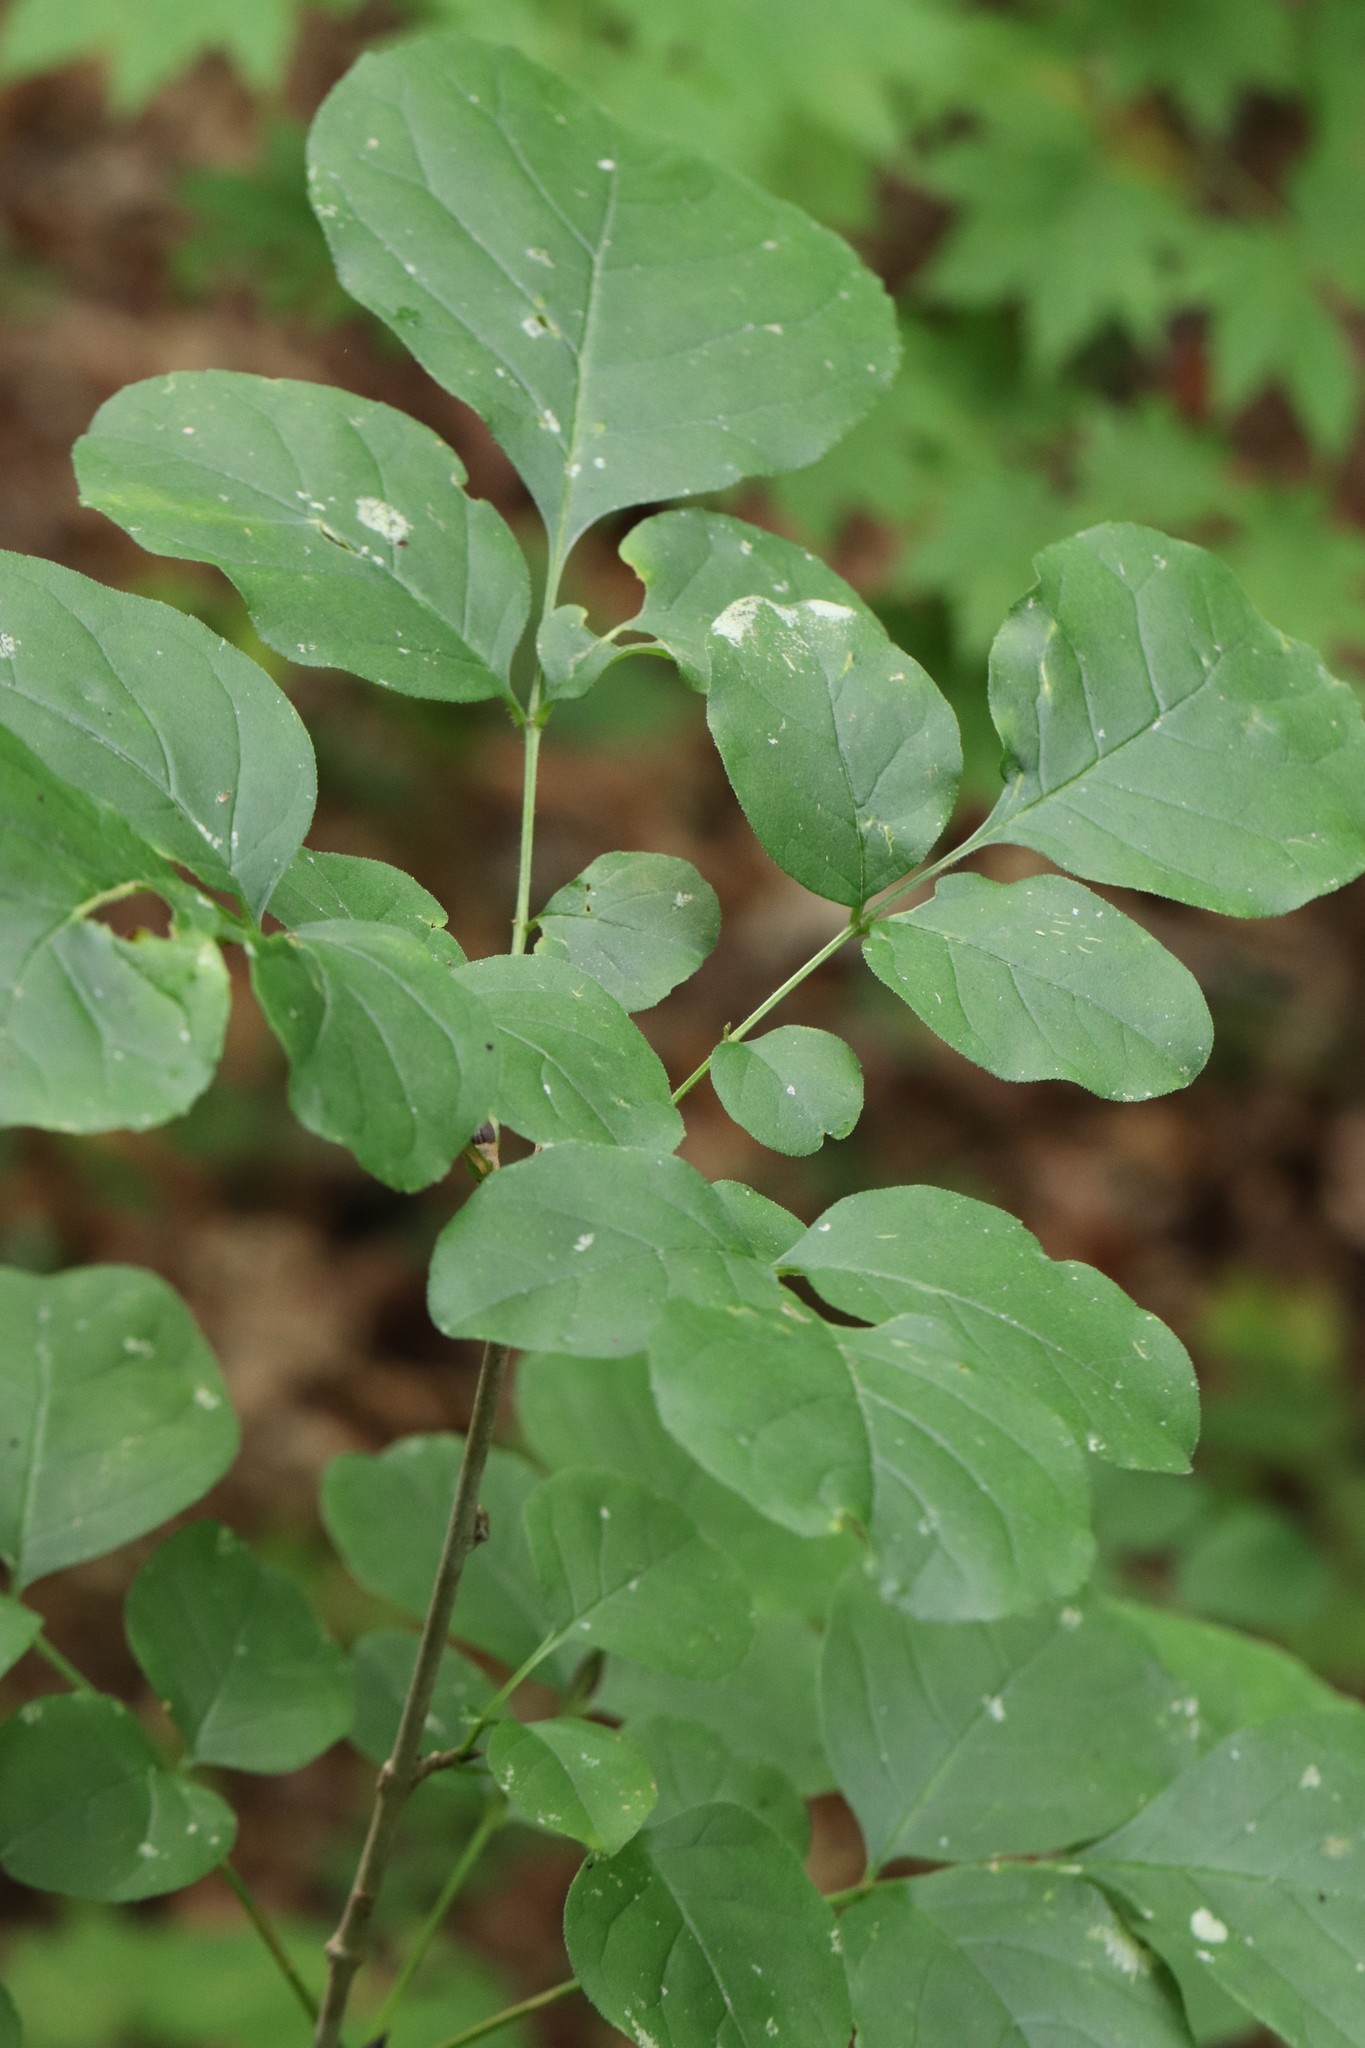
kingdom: Plantae
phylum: Tracheophyta
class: Magnoliopsida
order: Lamiales
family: Oleaceae
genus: Fraxinus
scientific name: Fraxinus chinensis
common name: Chinese ash
